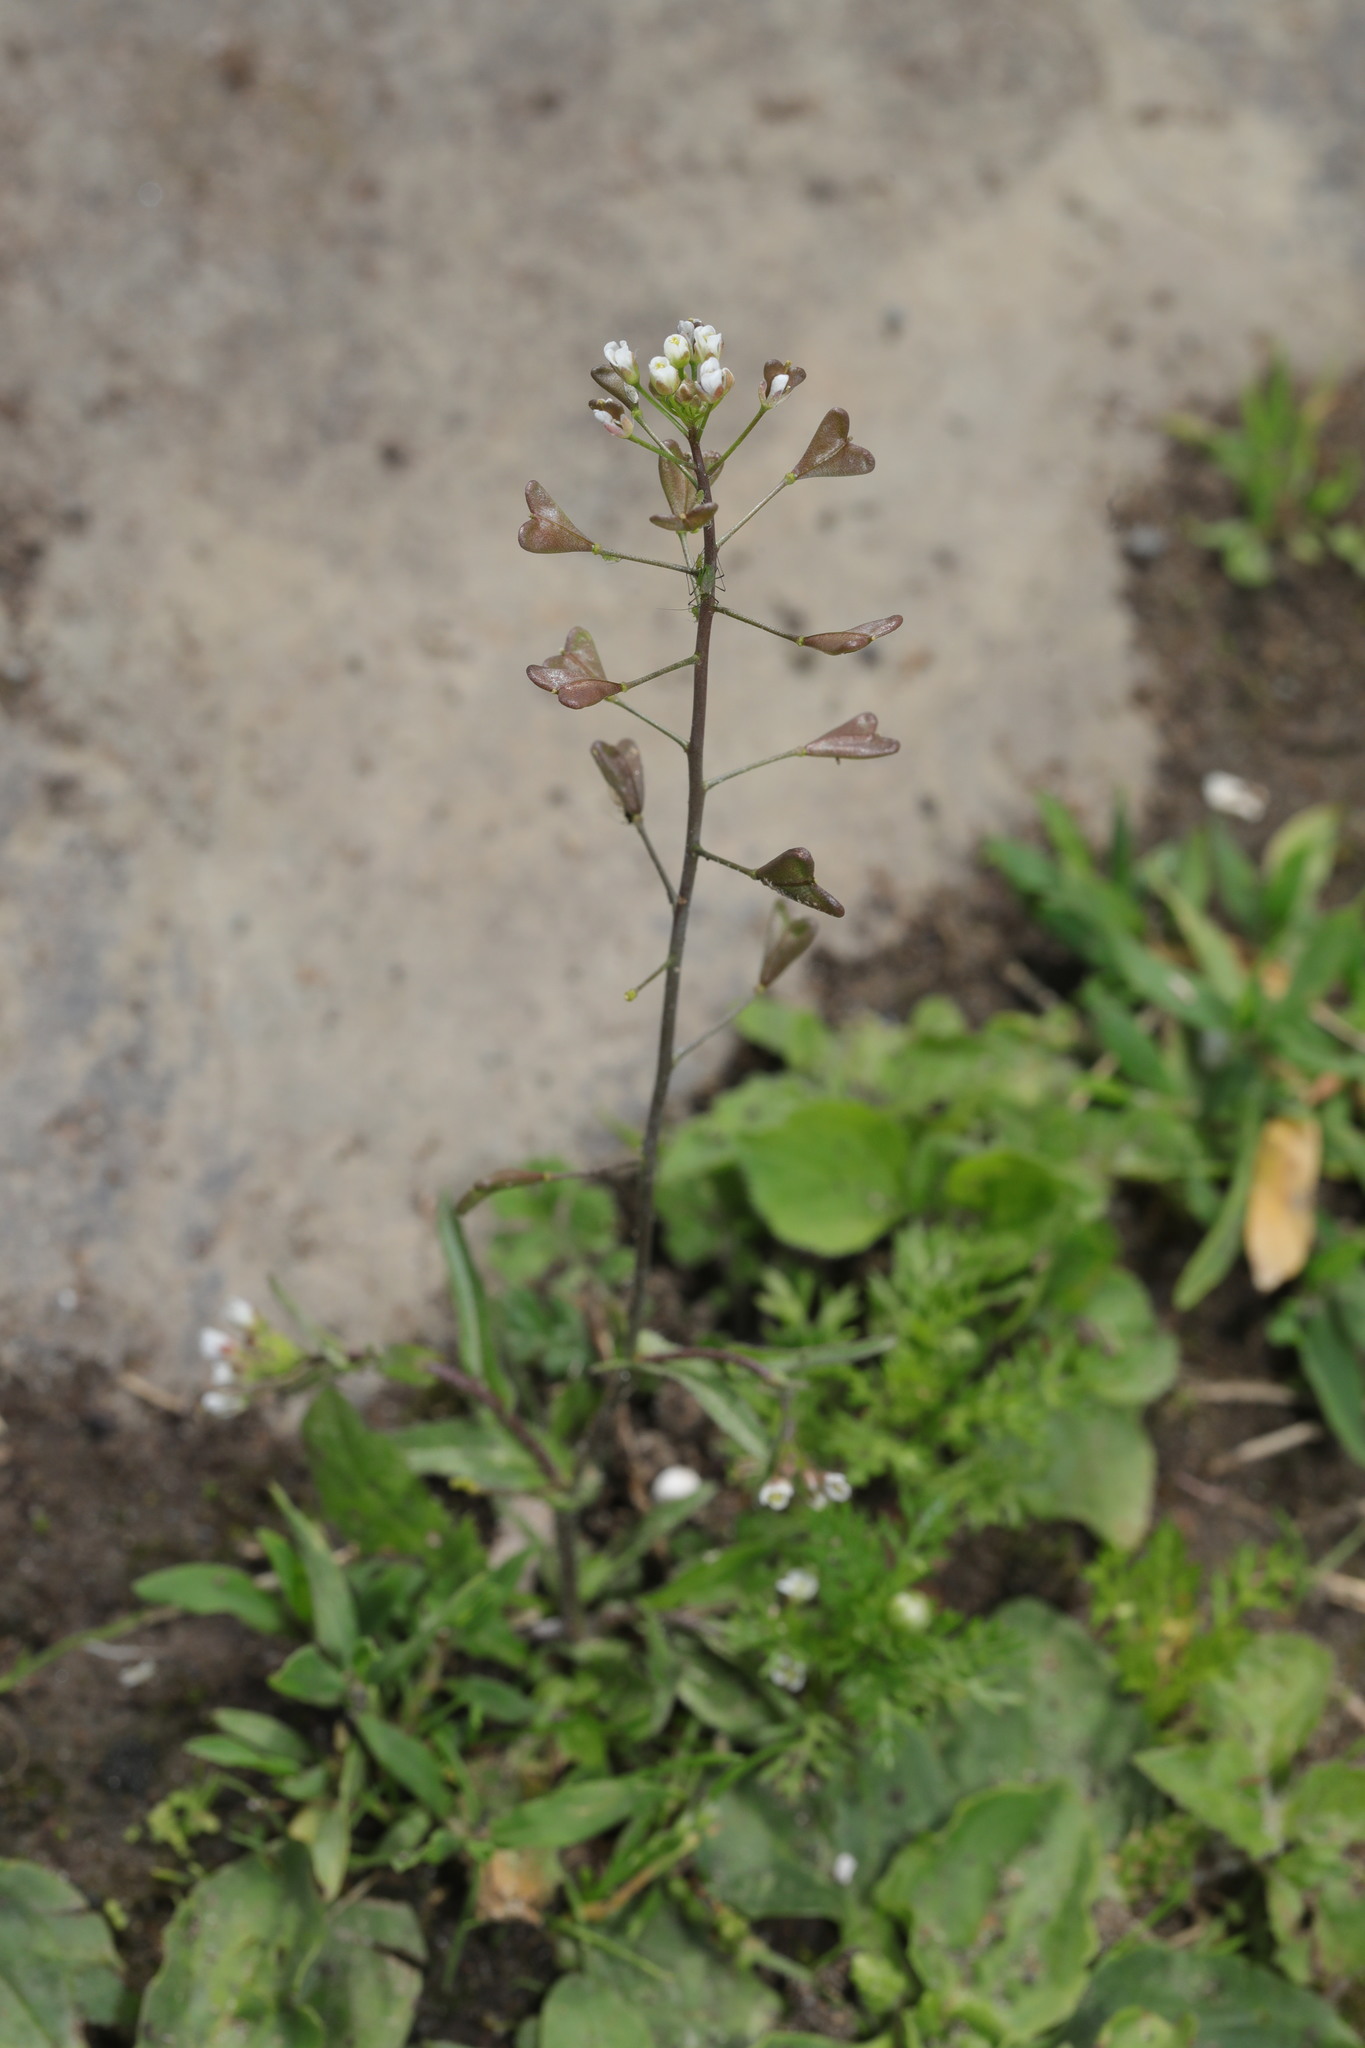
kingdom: Plantae
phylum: Tracheophyta
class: Magnoliopsida
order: Brassicales
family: Brassicaceae
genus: Capsella
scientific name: Capsella bursa-pastoris
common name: Shepherd's purse
